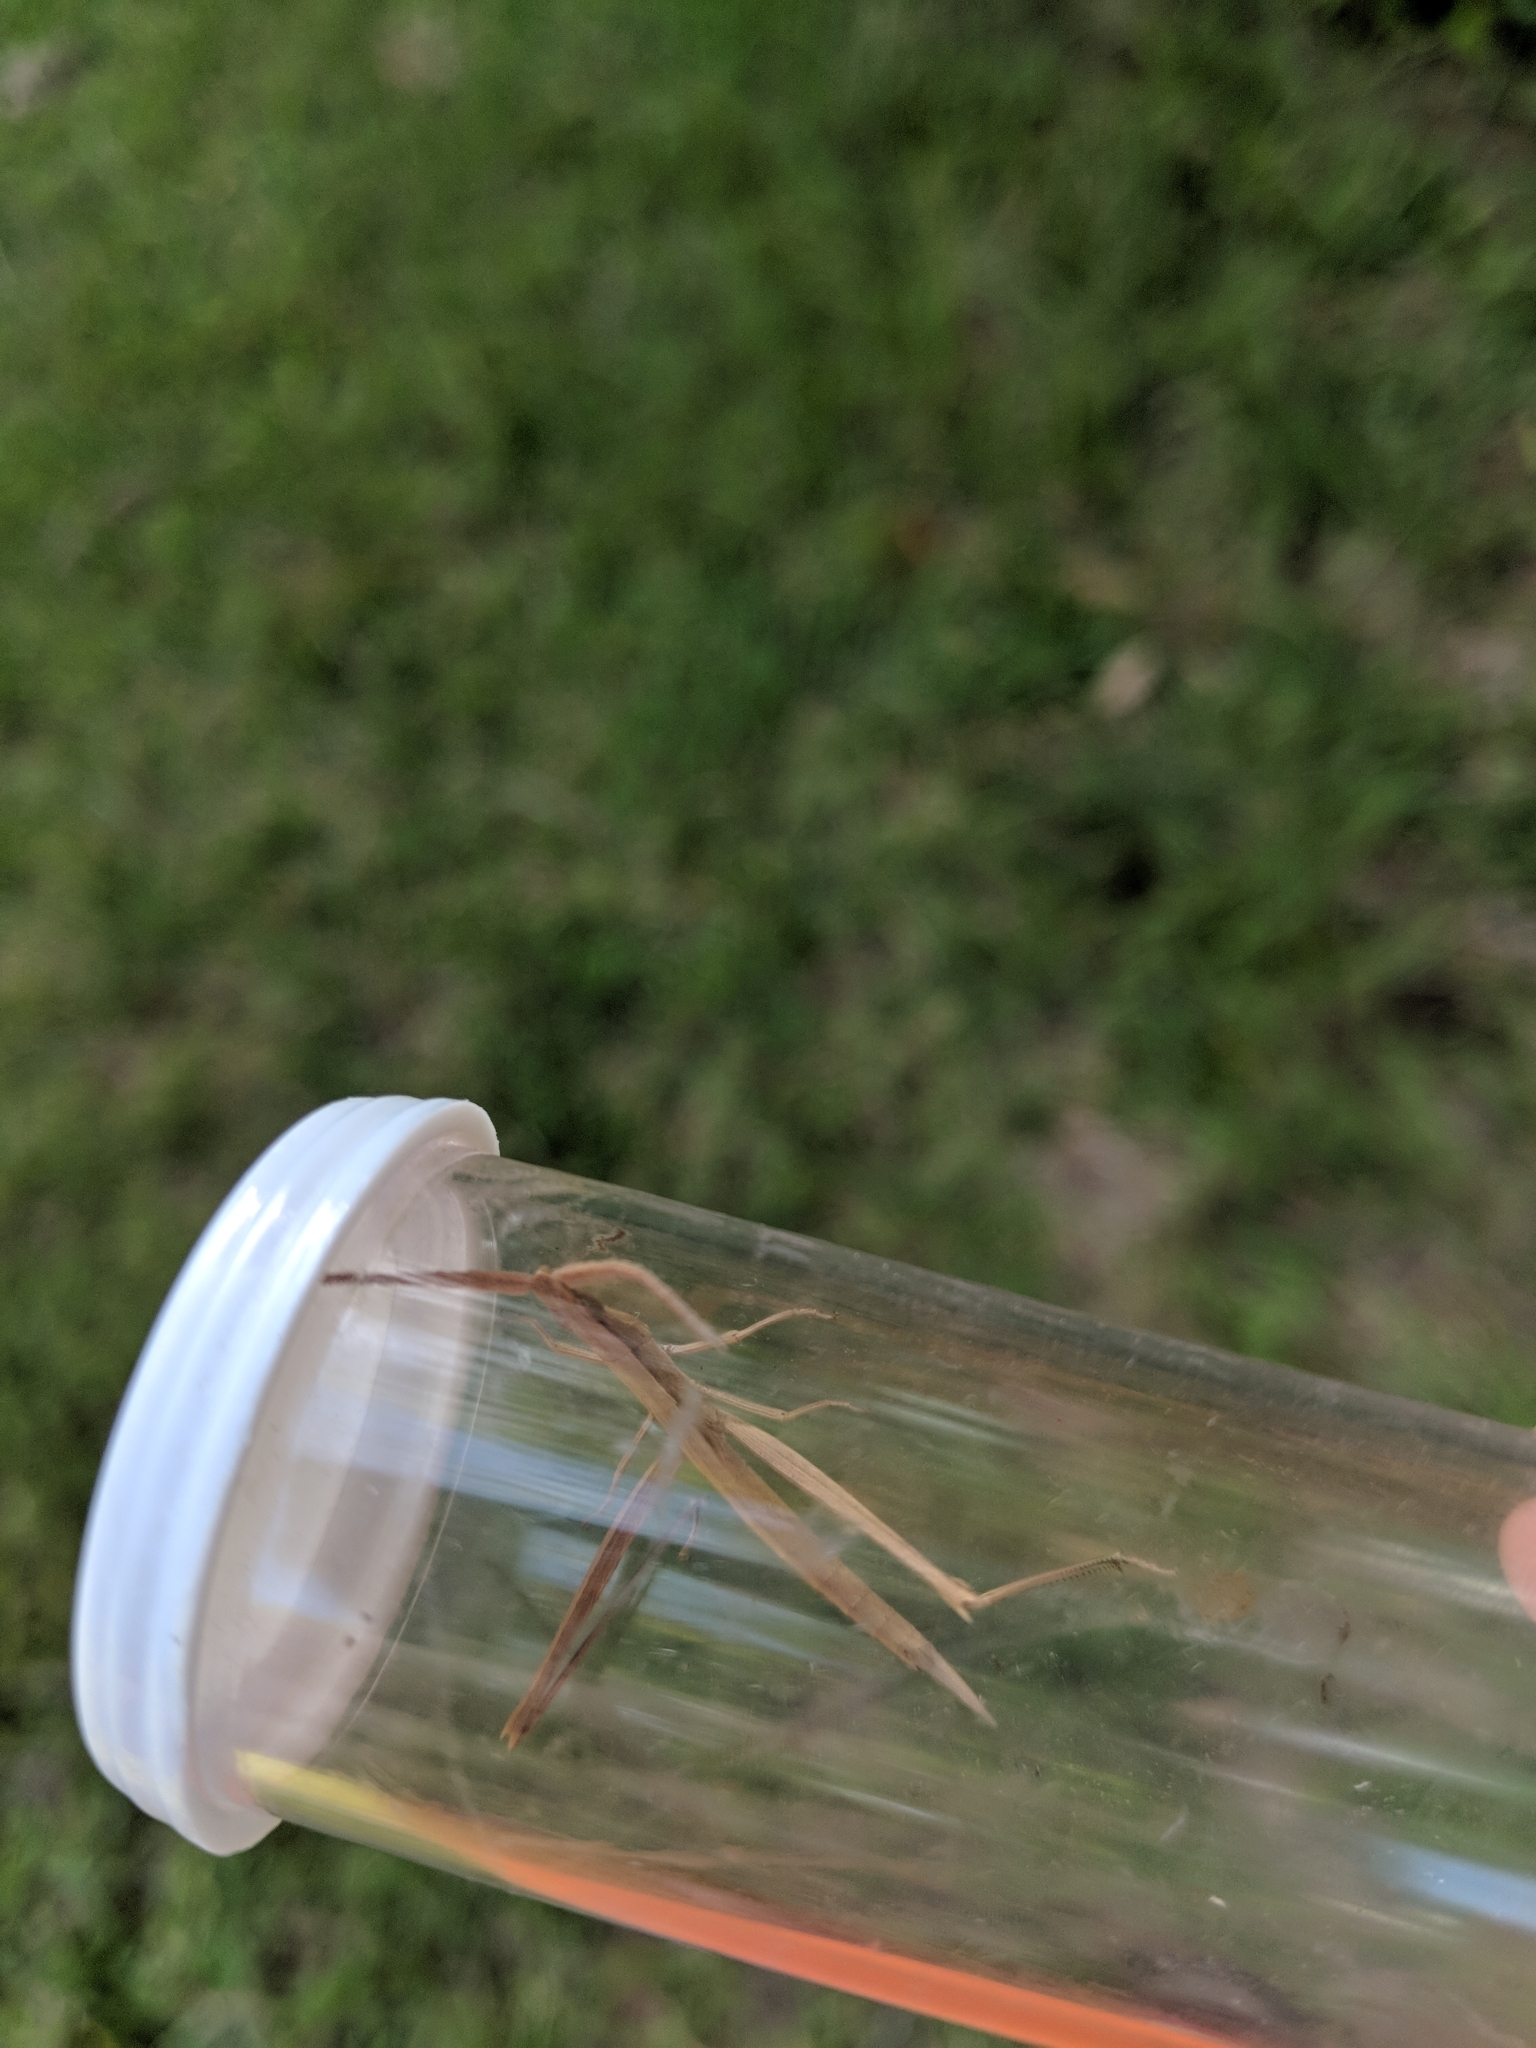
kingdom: Animalia
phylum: Arthropoda
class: Insecta
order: Orthoptera
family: Acrididae
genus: Achurum
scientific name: Achurum carinatum
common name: Long-headed toothpick grasshopper
